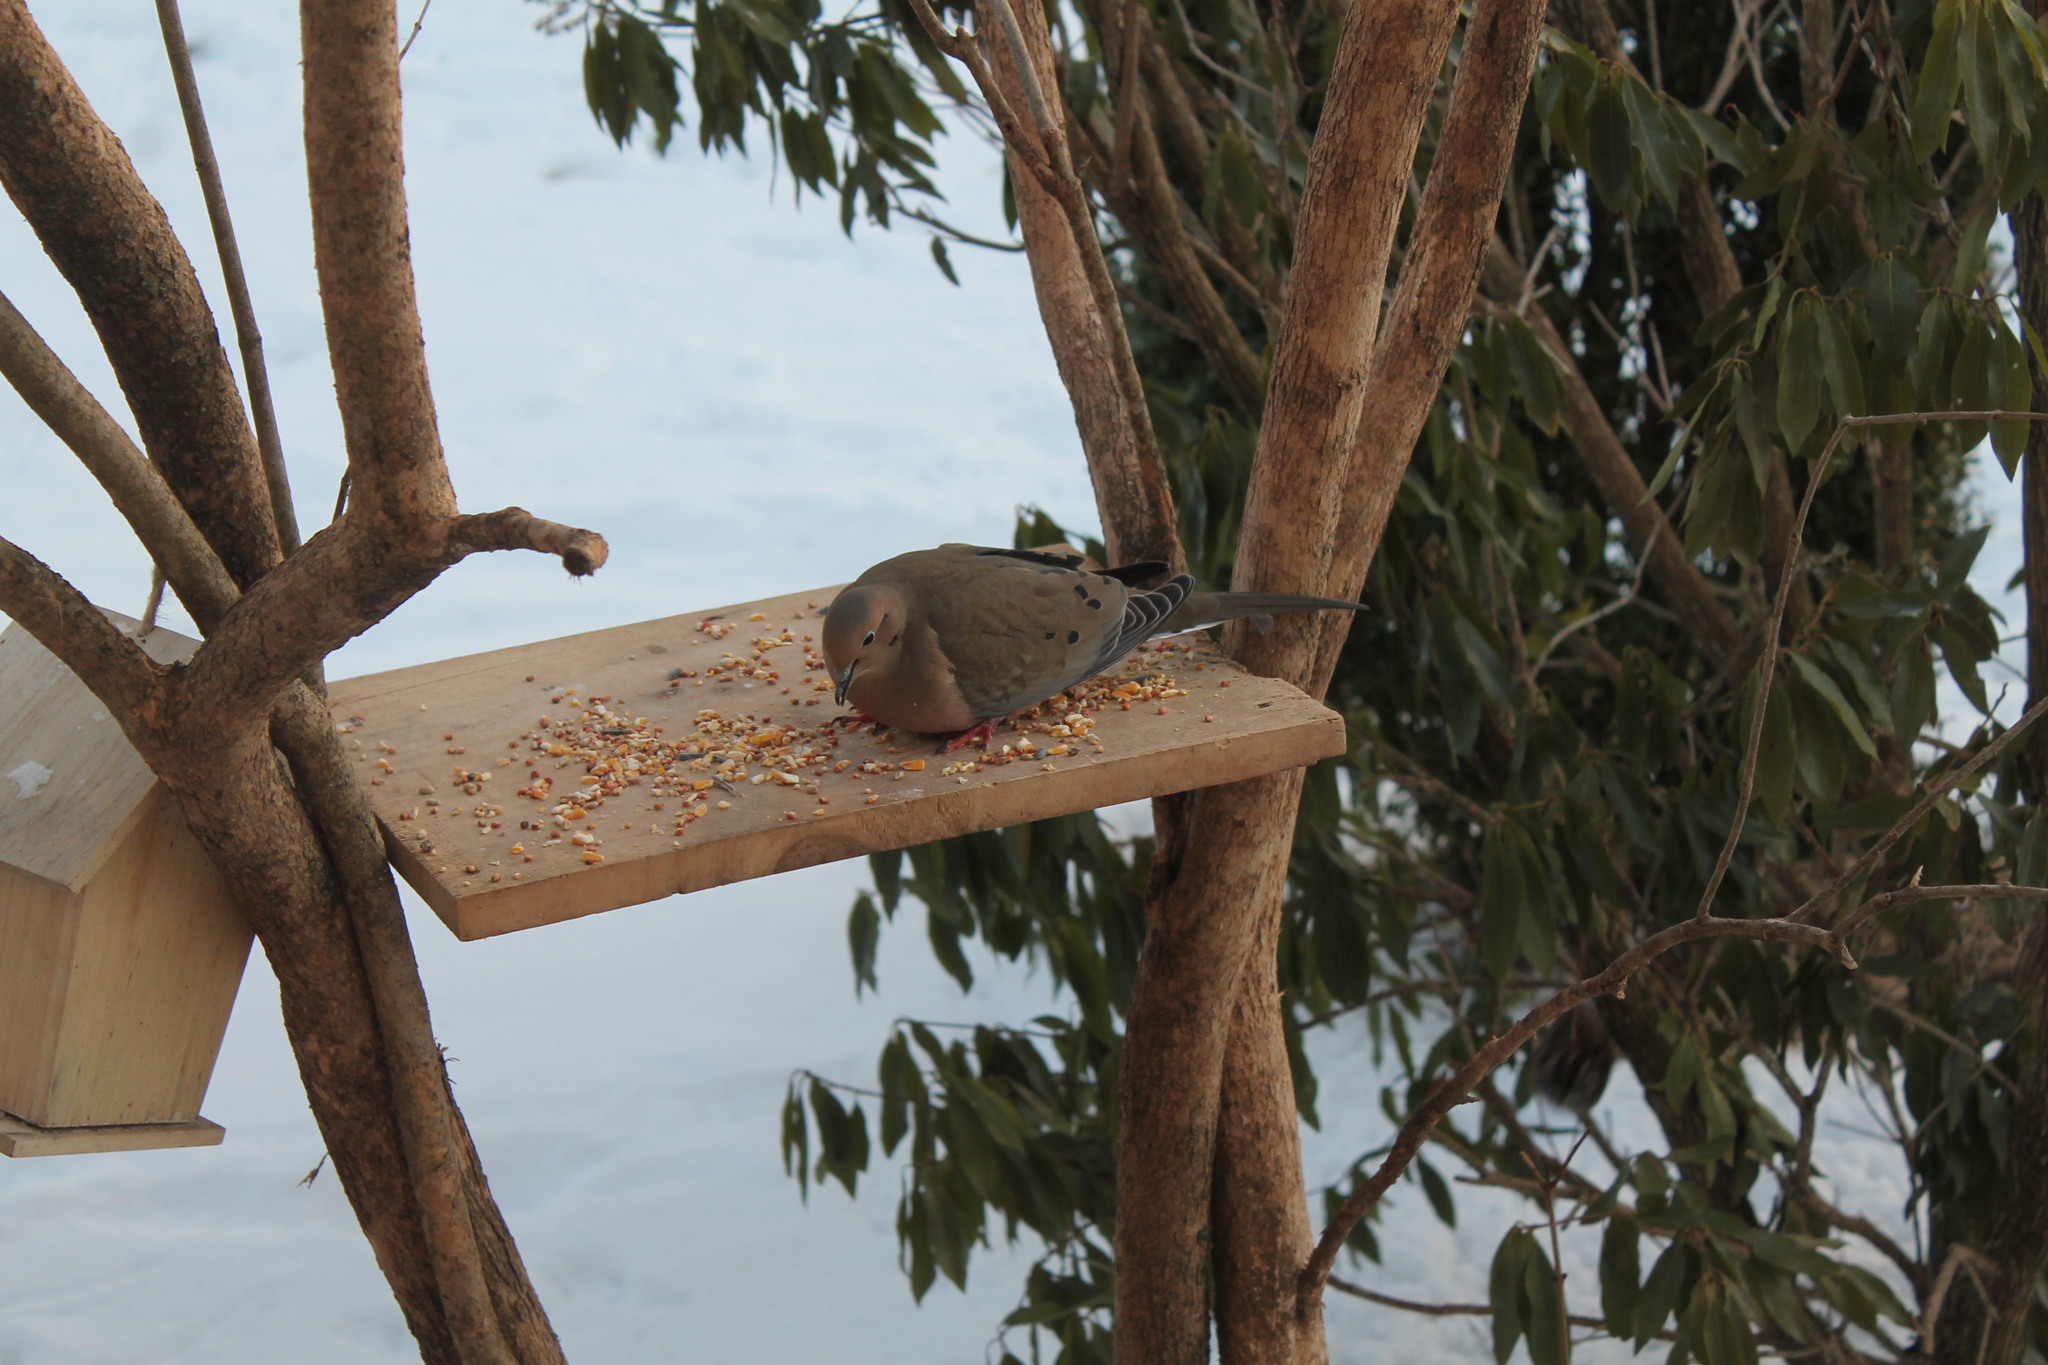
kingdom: Animalia
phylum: Chordata
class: Aves
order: Columbiformes
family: Columbidae
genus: Zenaida
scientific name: Zenaida macroura
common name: Mourning dove
